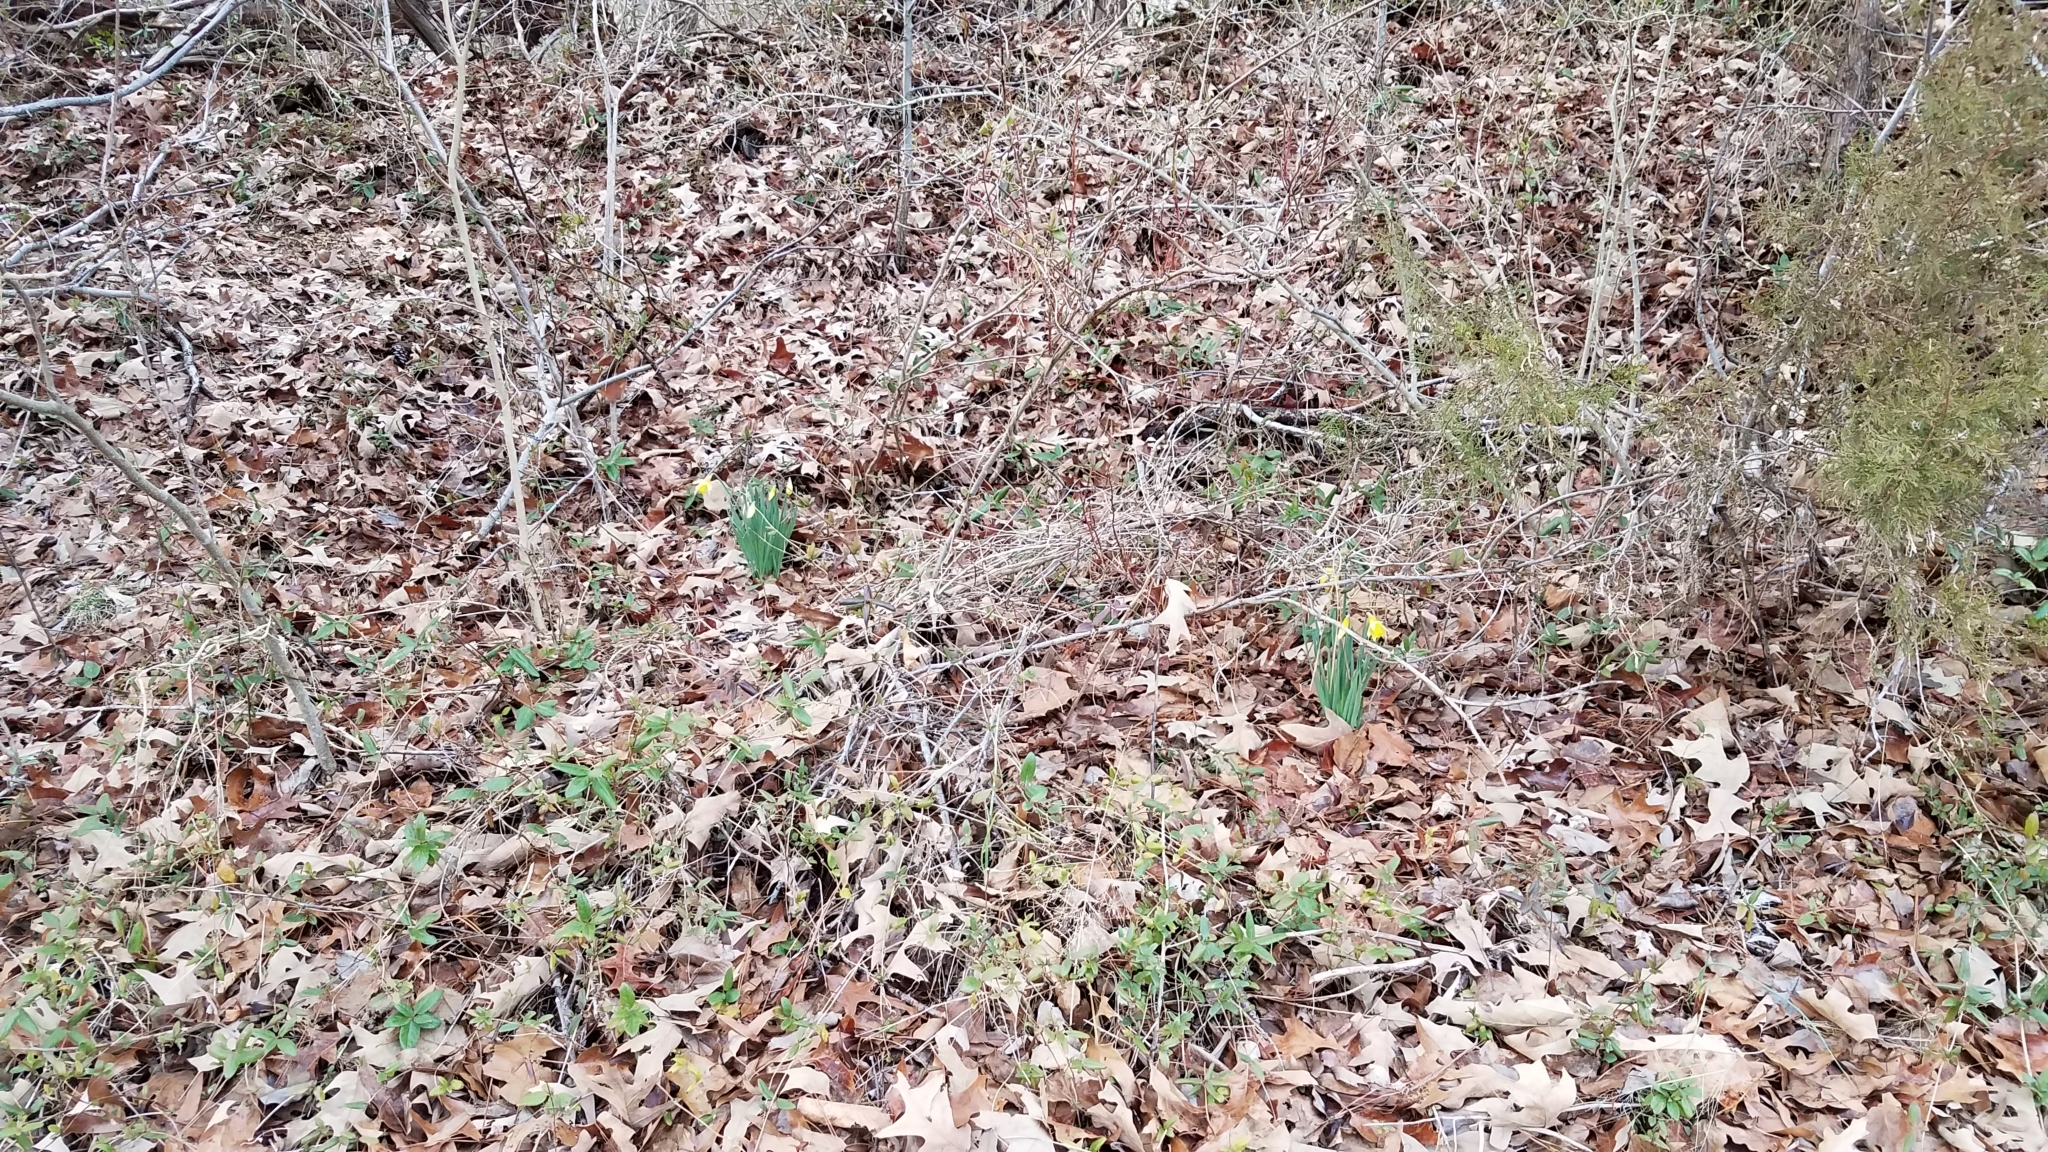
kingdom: Plantae
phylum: Tracheophyta
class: Liliopsida
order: Asparagales
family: Amaryllidaceae
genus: Narcissus
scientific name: Narcissus pseudonarcissus
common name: Daffodil
